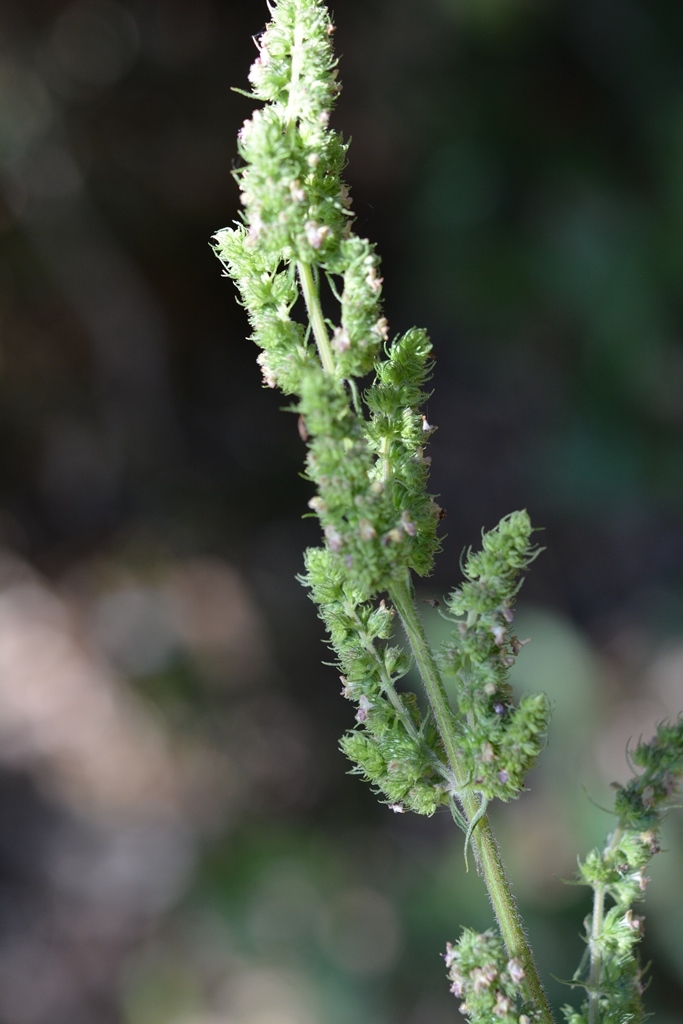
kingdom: Plantae
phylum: Tracheophyta
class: Magnoliopsida
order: Lamiales
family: Lamiaceae
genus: Mesosphaerum
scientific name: Mesosphaerum pectinatum
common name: Comb hyptis
